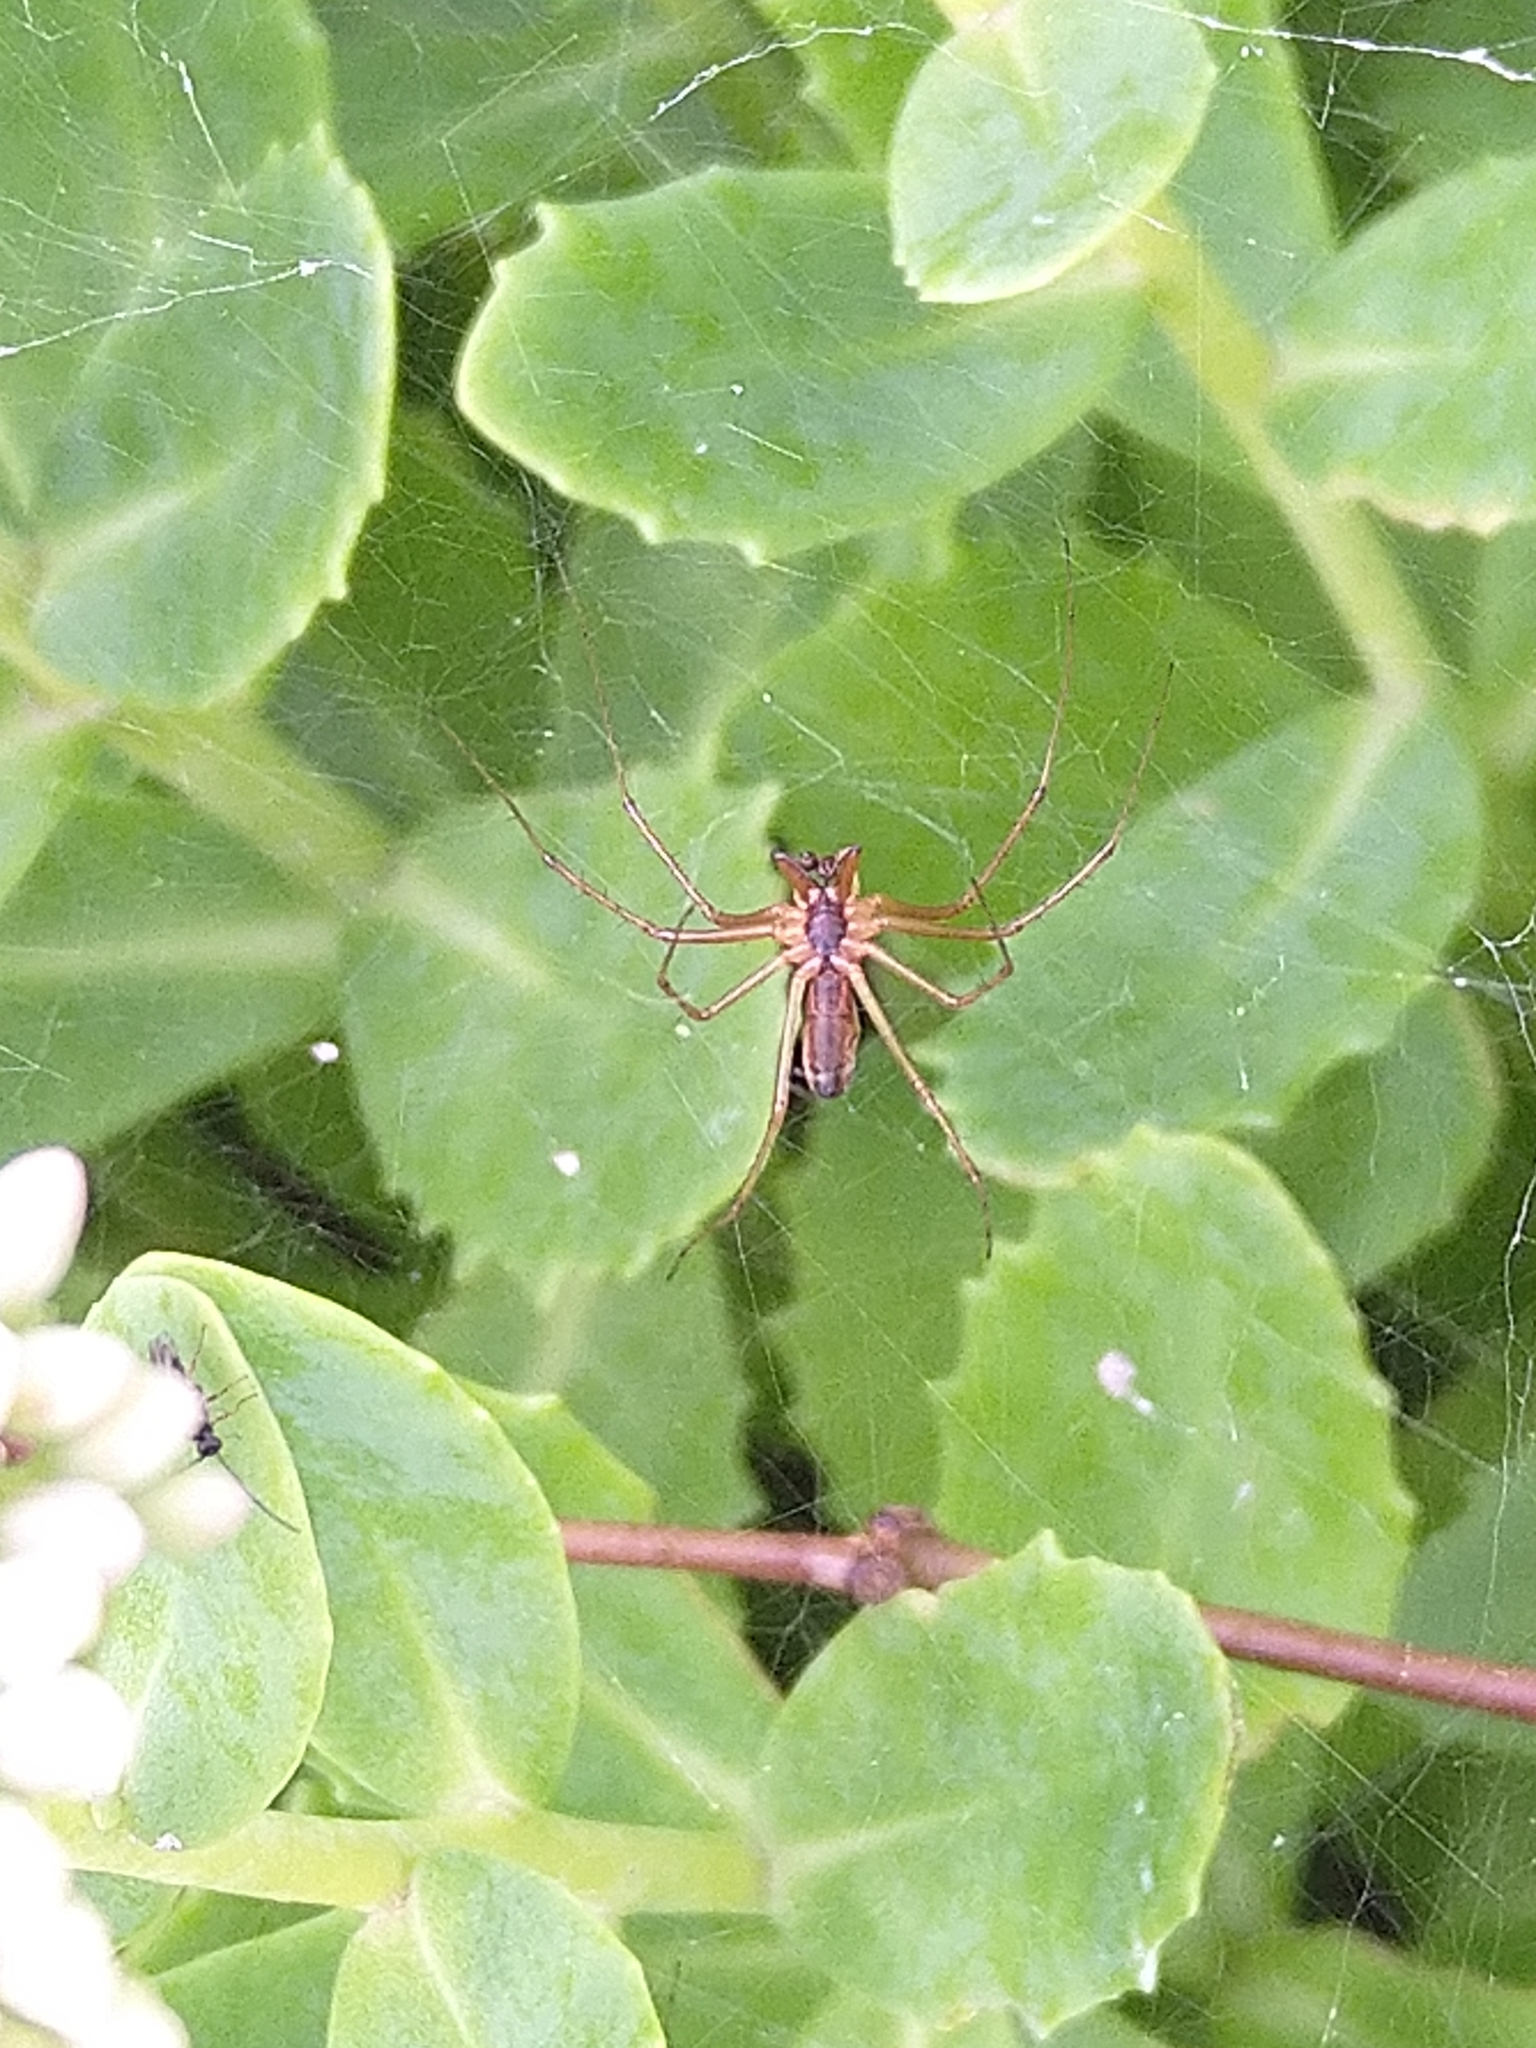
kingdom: Animalia
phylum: Arthropoda
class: Arachnida
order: Araneae
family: Linyphiidae
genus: Linyphia
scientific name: Linyphia triangularis
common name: Money spider
